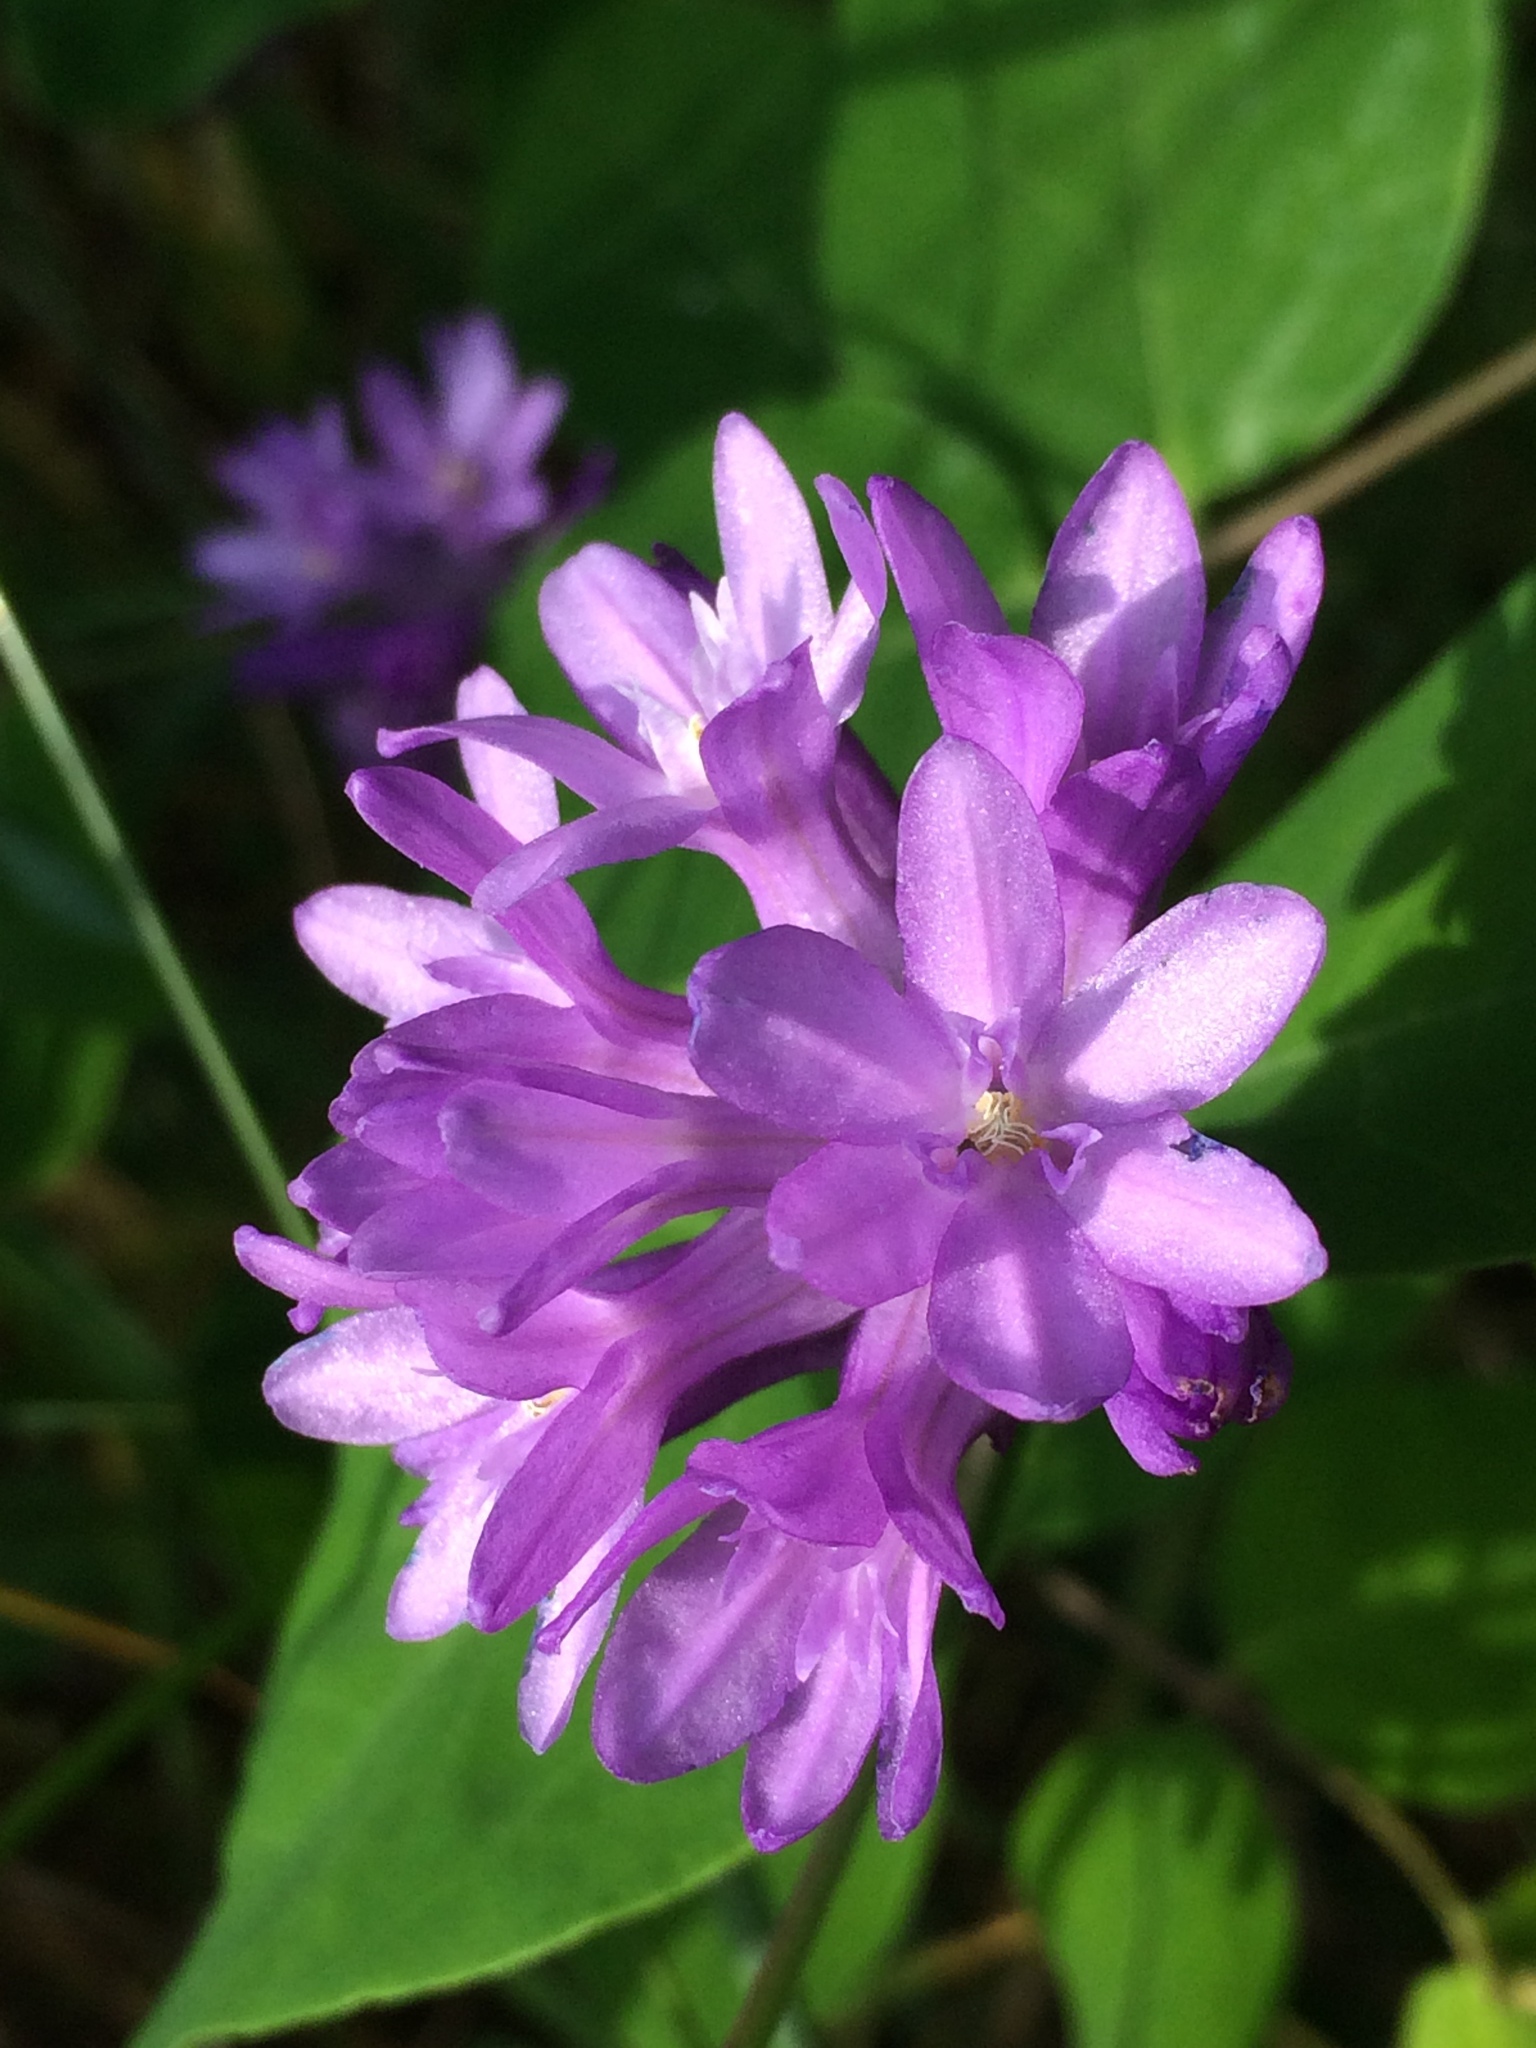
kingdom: Plantae
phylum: Tracheophyta
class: Liliopsida
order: Asparagales
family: Asparagaceae
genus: Dichelostemma
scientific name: Dichelostemma congestum
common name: Fork-tooth ookow
